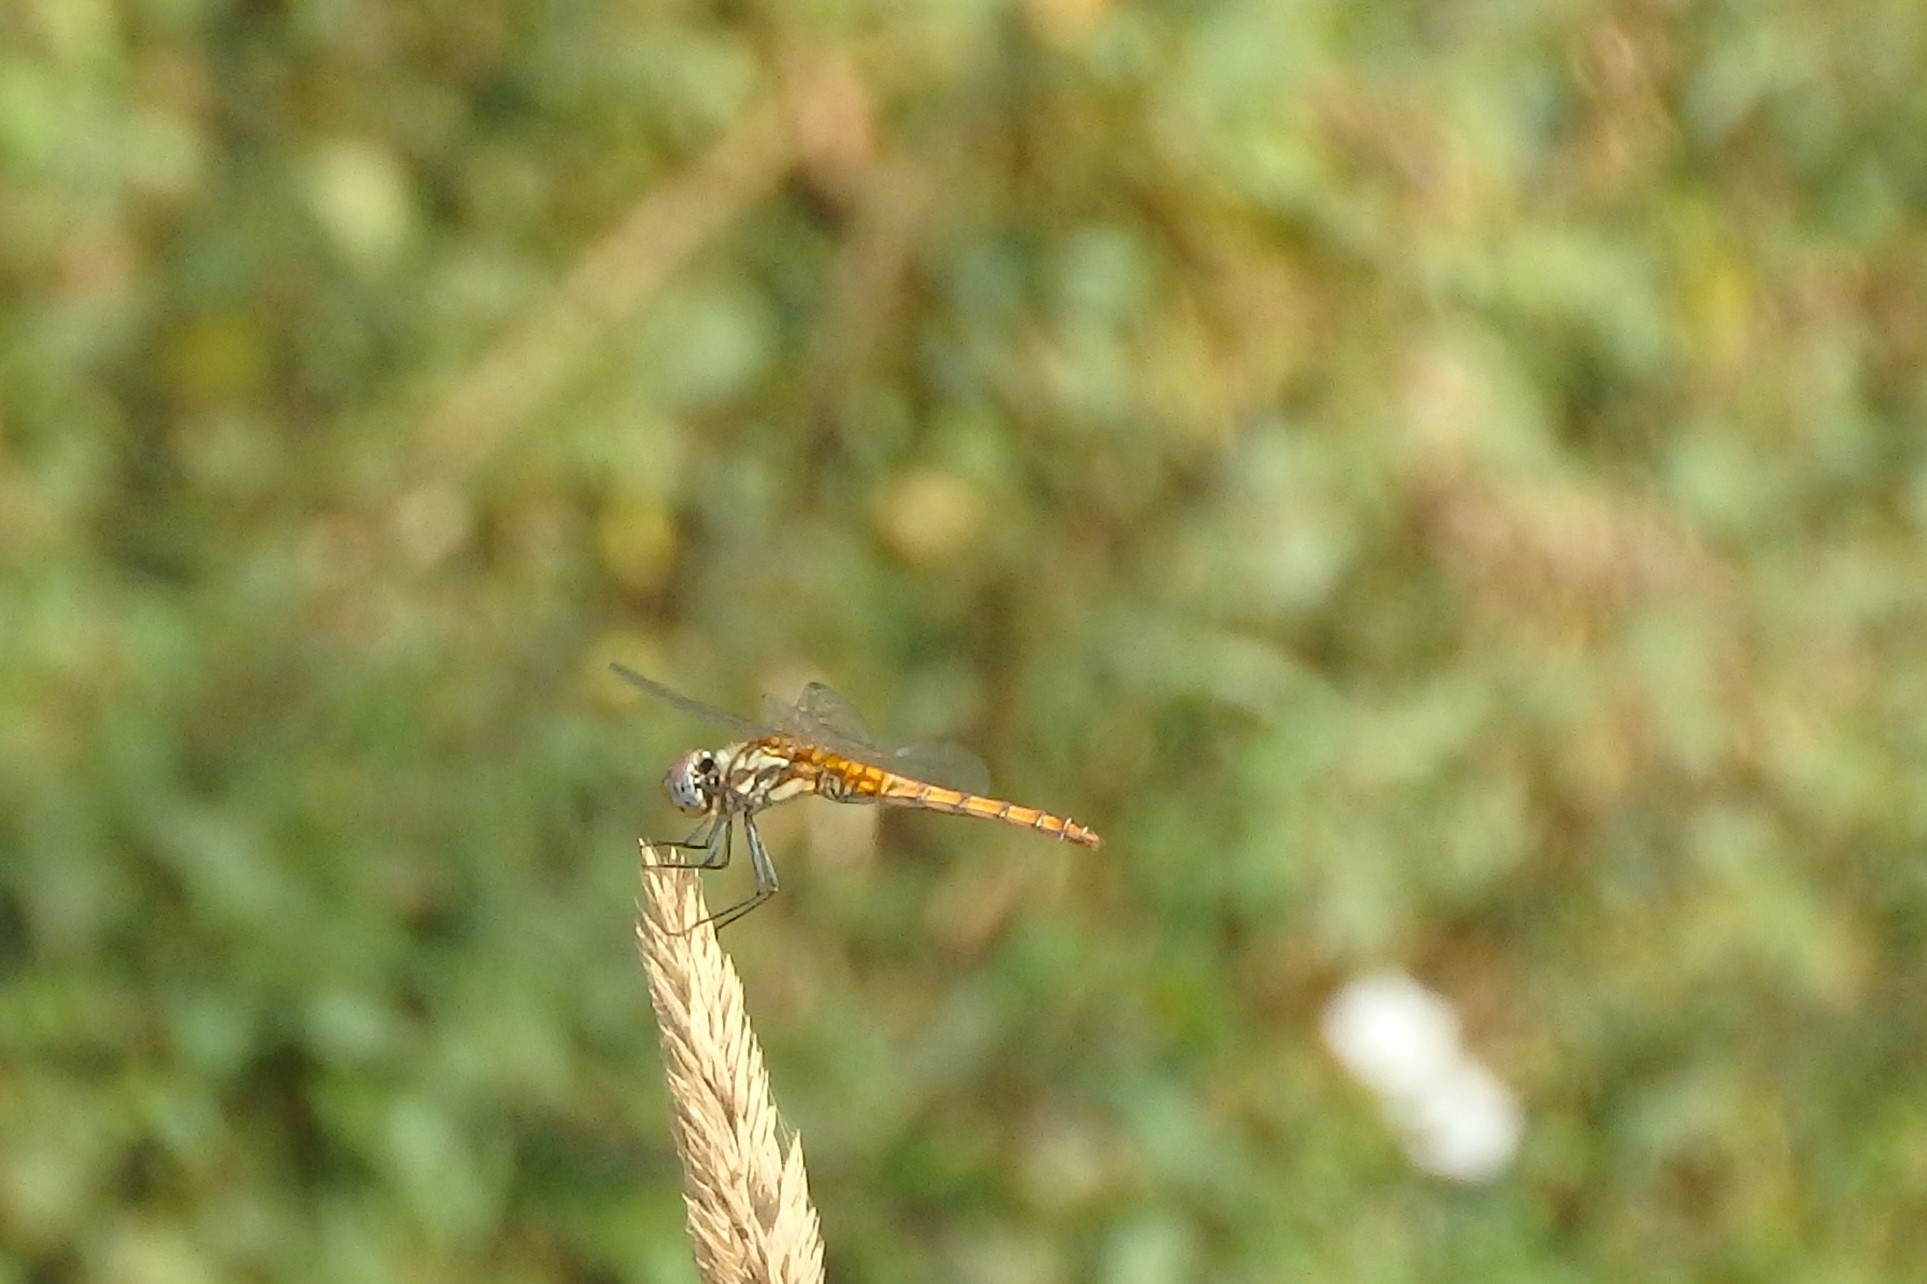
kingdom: Animalia
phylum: Arthropoda
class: Insecta
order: Odonata
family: Libellulidae
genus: Trithemis
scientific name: Trithemis annulata
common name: Violet dropwing
